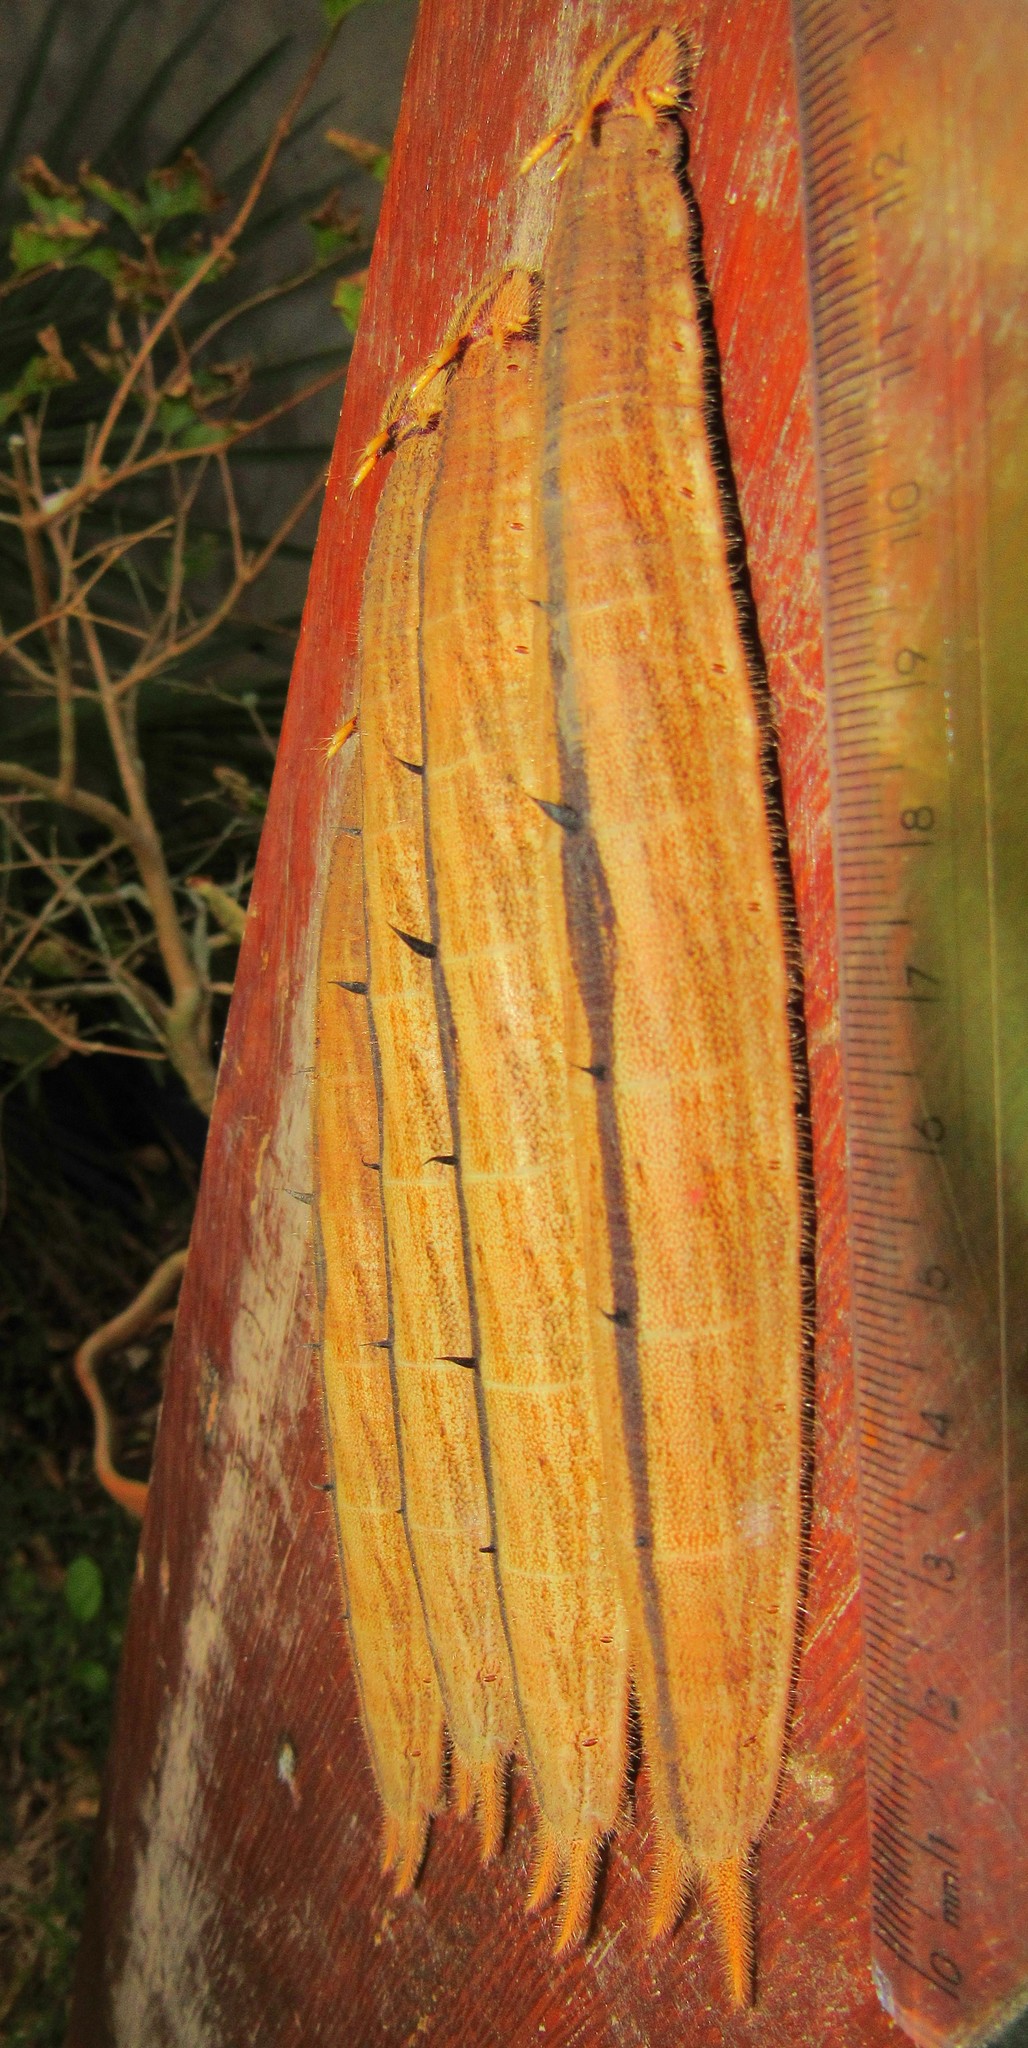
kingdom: Animalia
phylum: Arthropoda
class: Insecta
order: Lepidoptera
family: Nymphalidae
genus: Caligo
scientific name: Caligo brasiliensis
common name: Dark owl-butterfly
